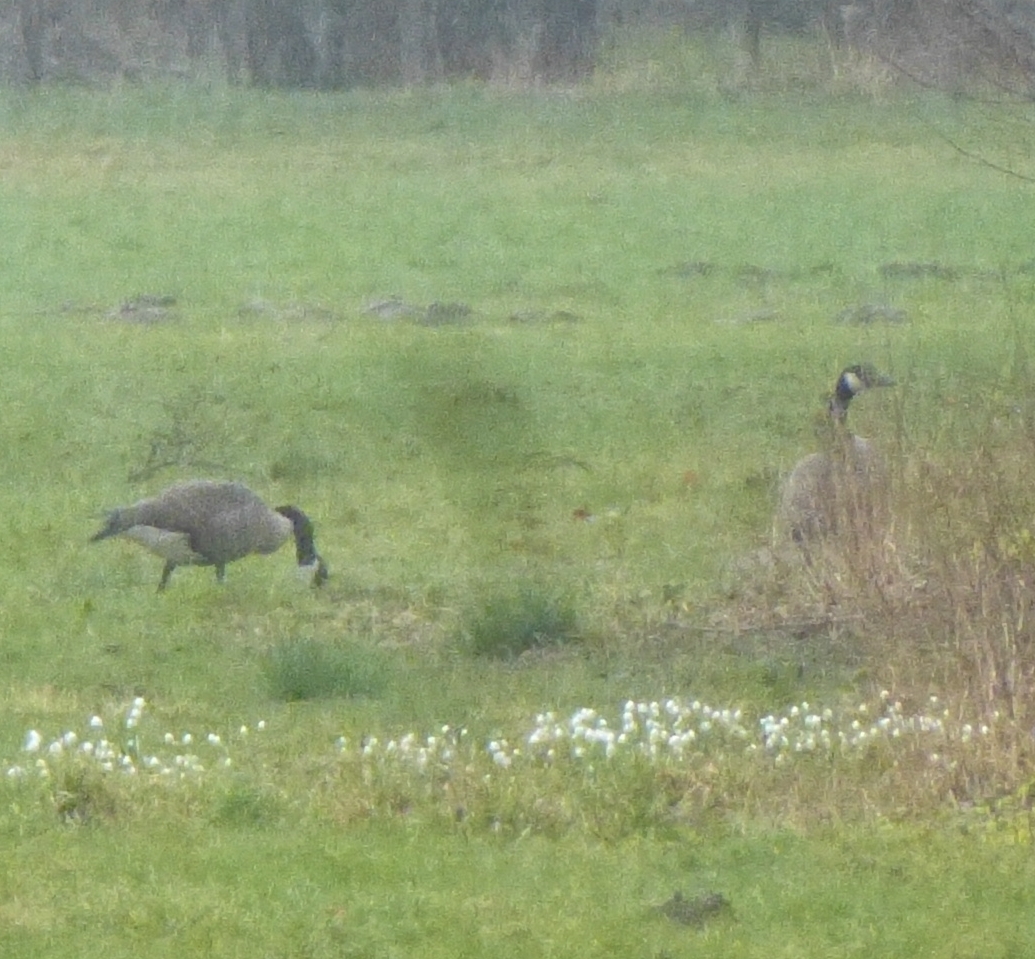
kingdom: Animalia
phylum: Chordata
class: Aves
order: Anseriformes
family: Anatidae
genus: Branta
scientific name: Branta canadensis
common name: Canada goose
